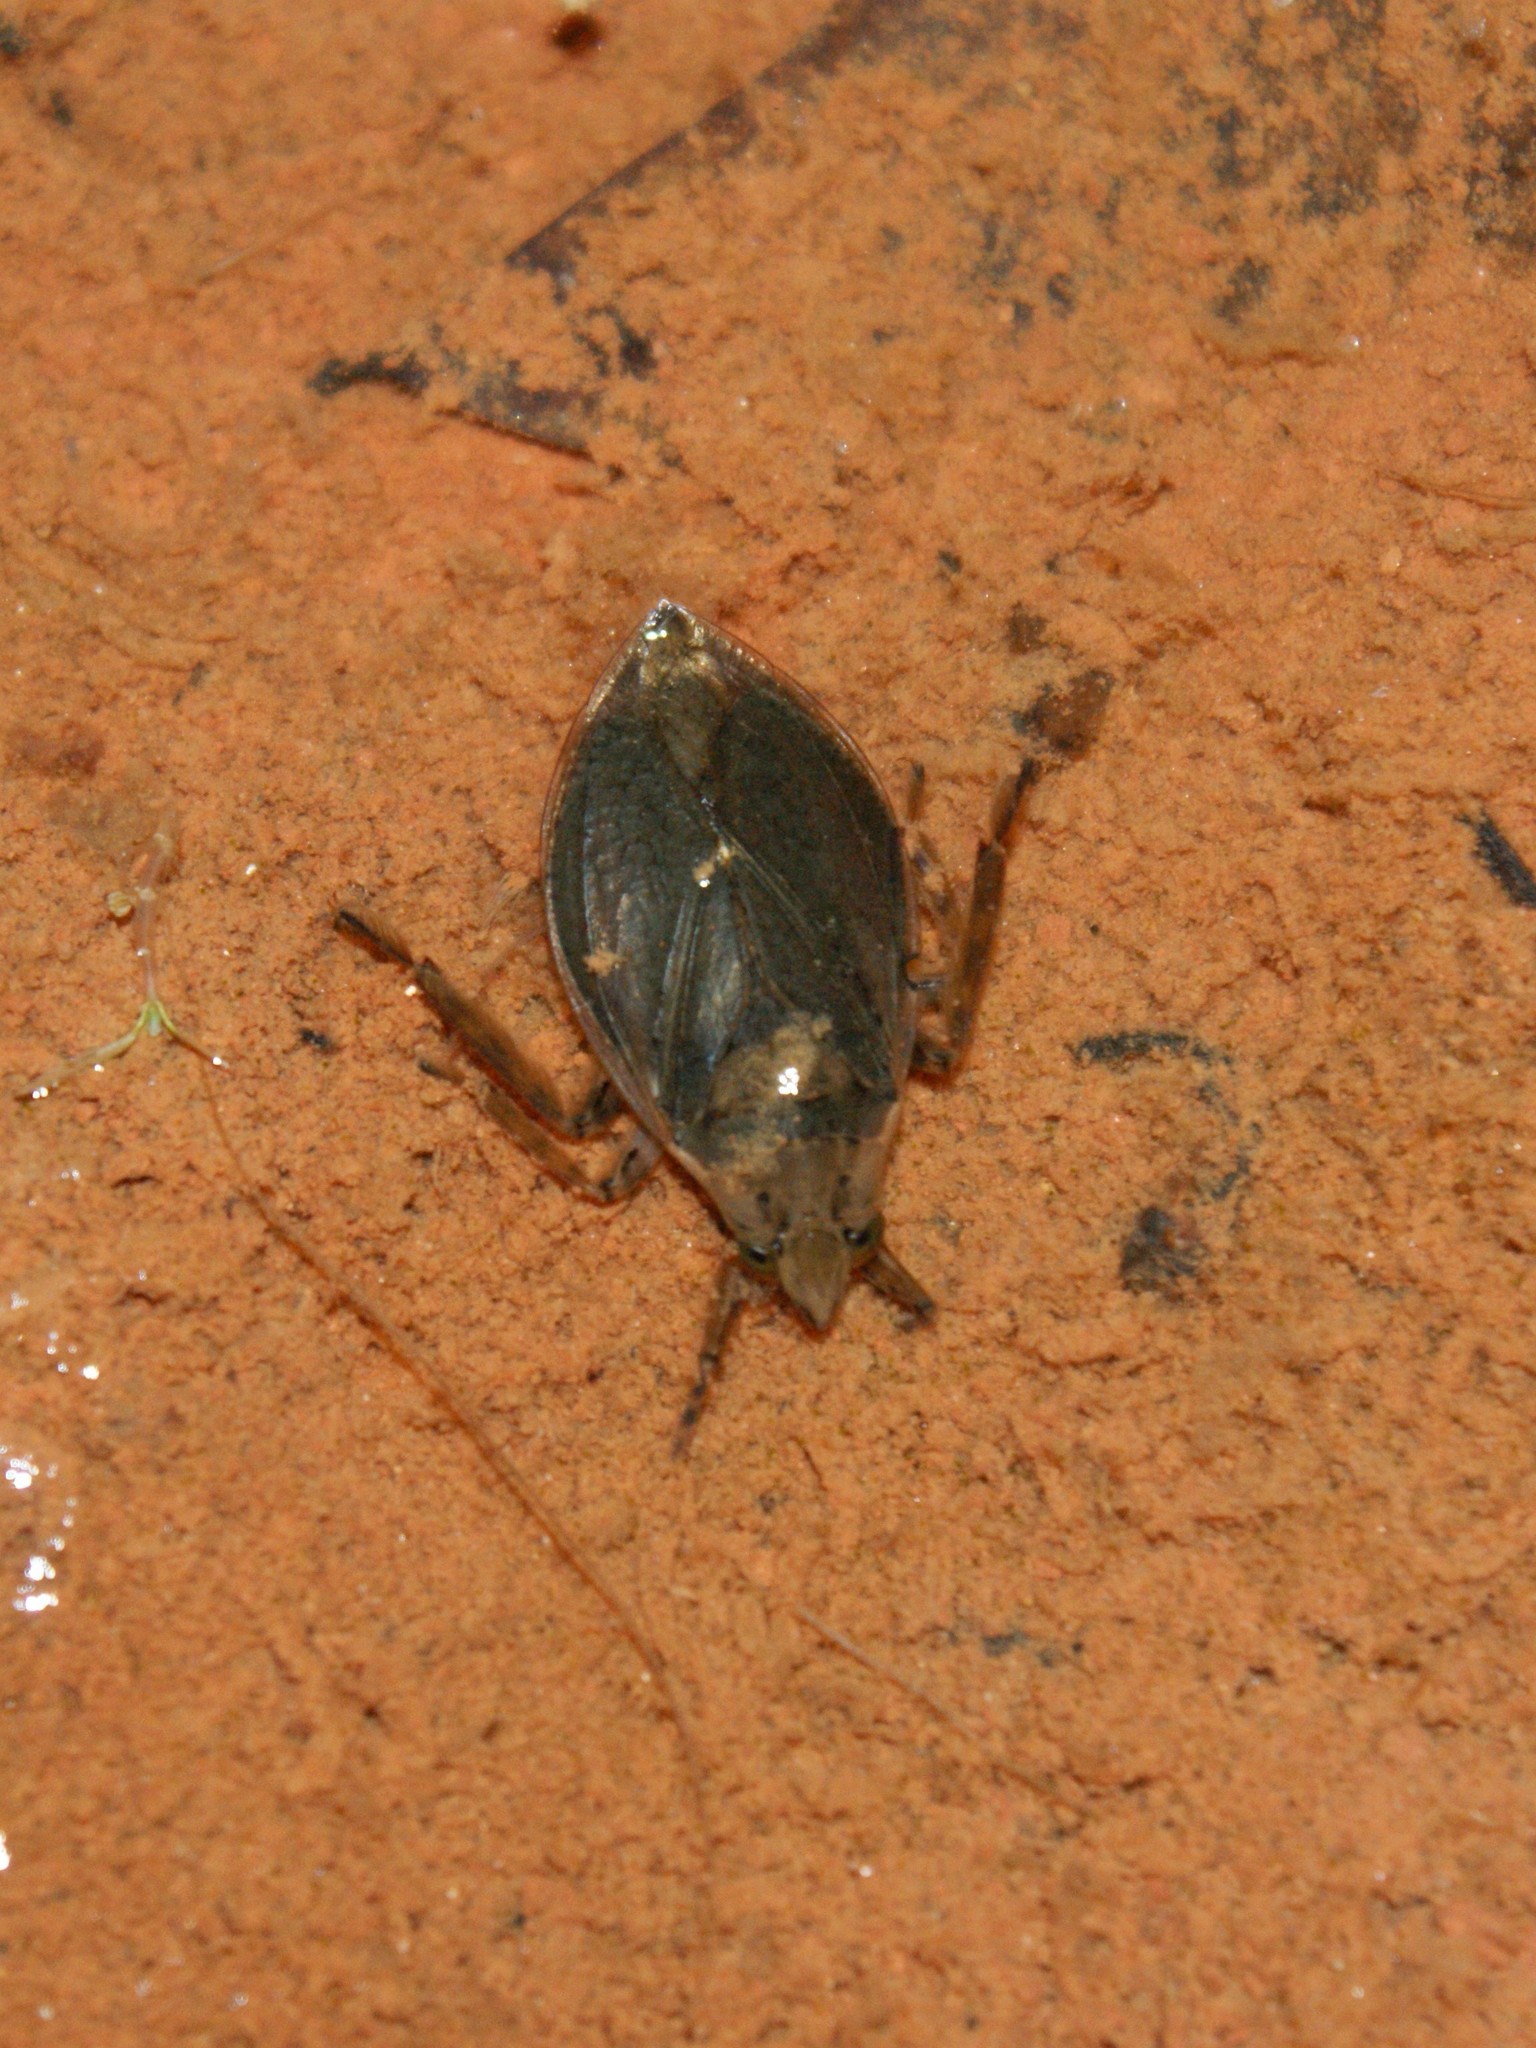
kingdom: Animalia
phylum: Arthropoda
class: Insecta
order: Hemiptera
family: Belostomatidae
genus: Belostoma
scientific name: Belostoma
